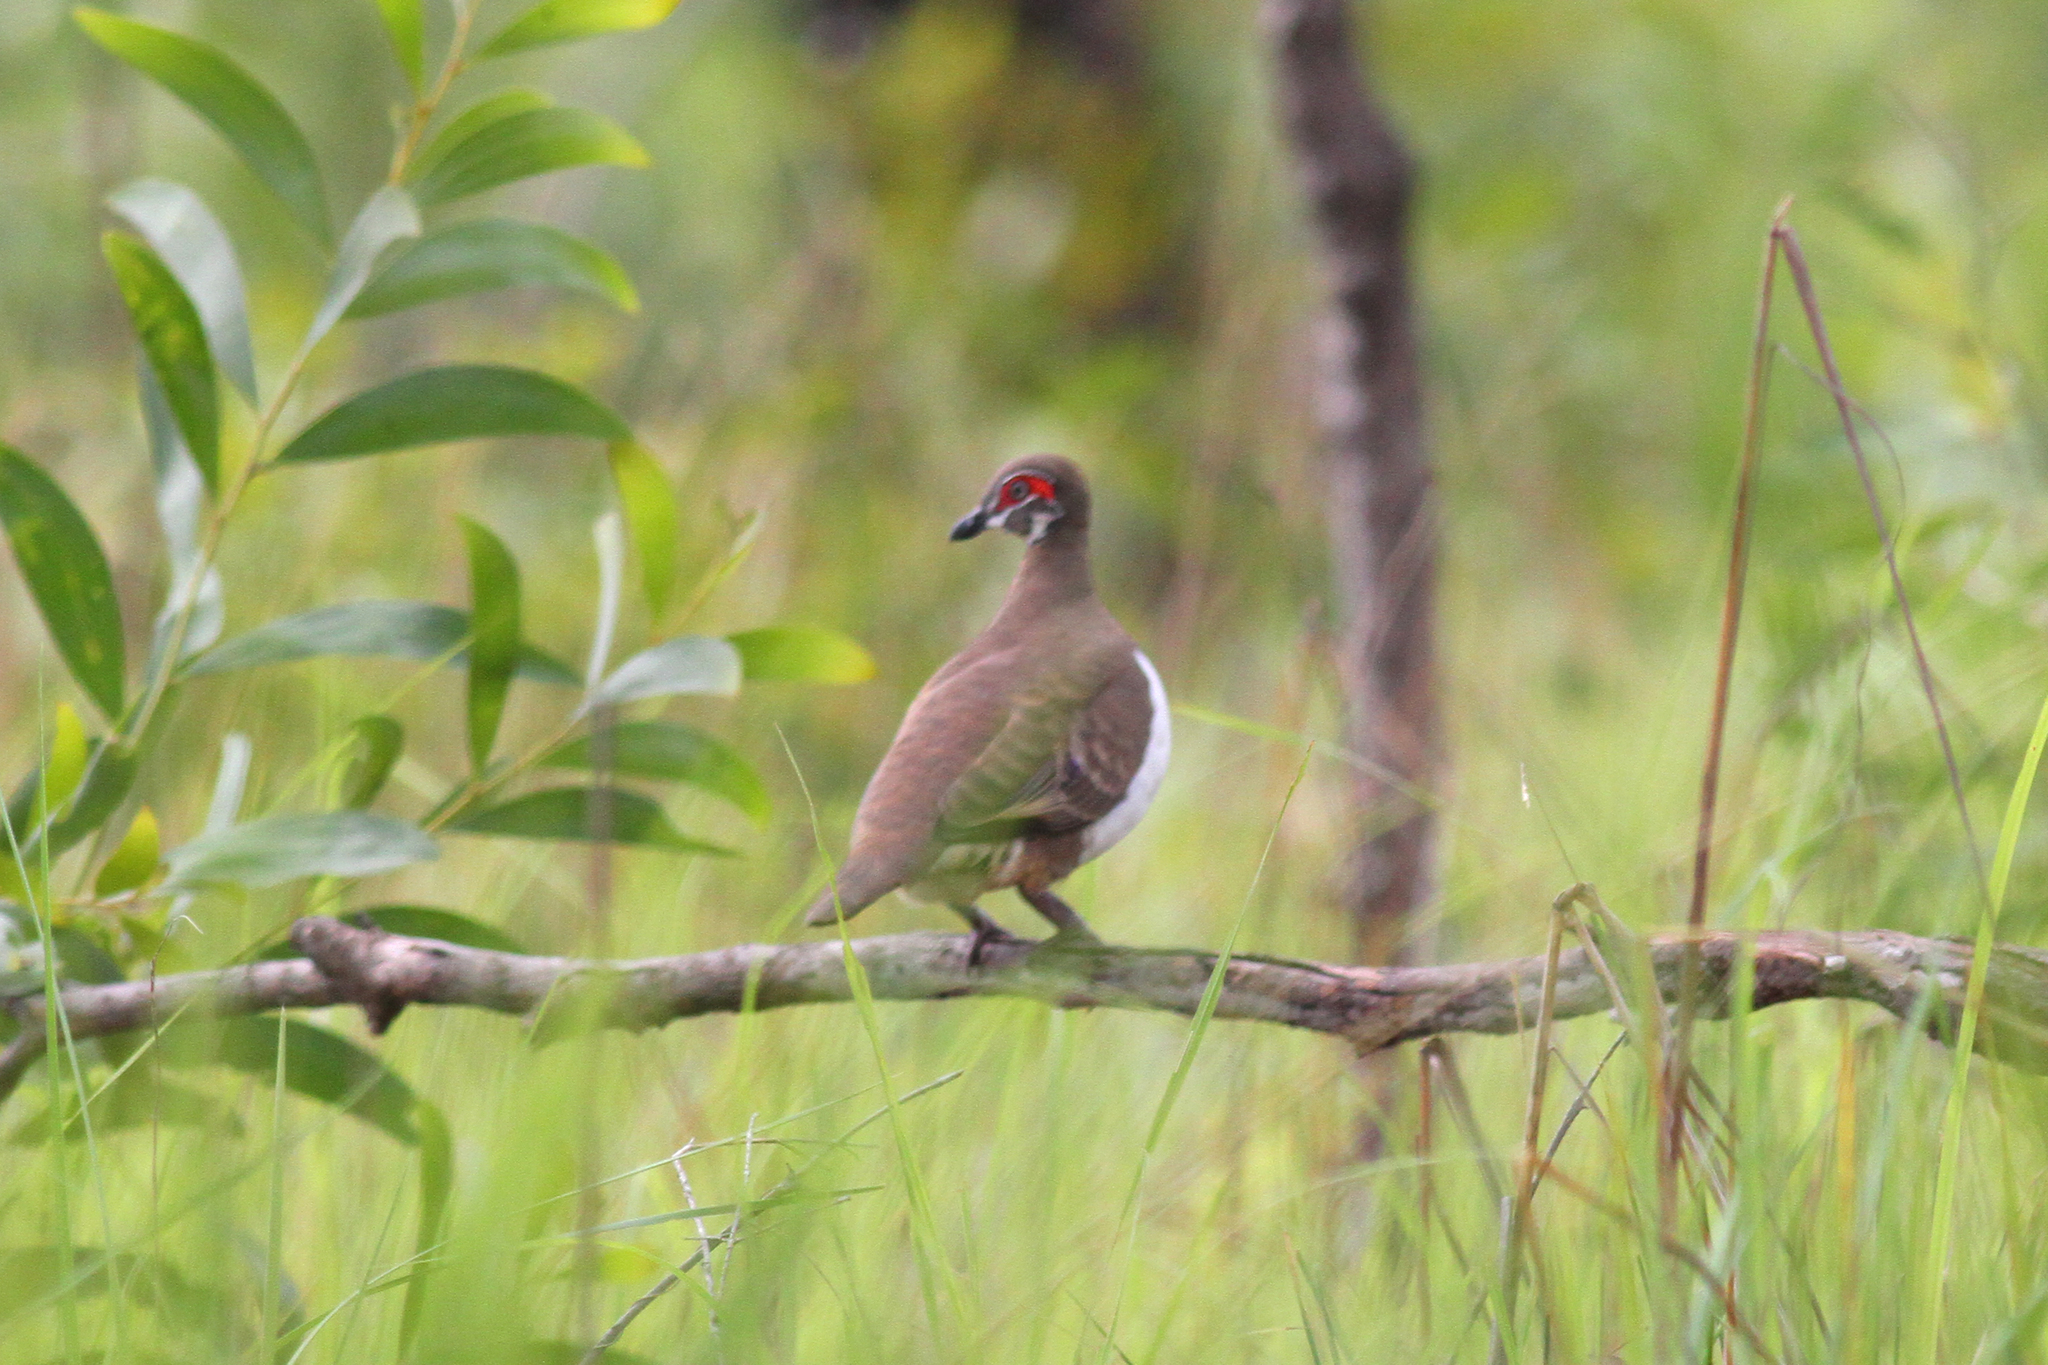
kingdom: Animalia
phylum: Chordata
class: Aves
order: Columbiformes
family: Columbidae
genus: Geophaps
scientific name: Geophaps smithii
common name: Partridge pigeon
